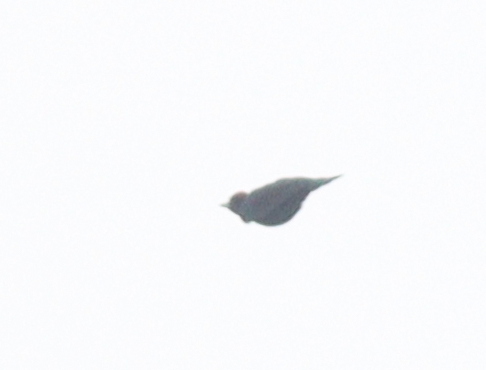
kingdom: Animalia
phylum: Chordata
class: Aves
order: Piciformes
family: Picidae
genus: Dryocopus
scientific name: Dryocopus martius
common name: Black woodpecker
